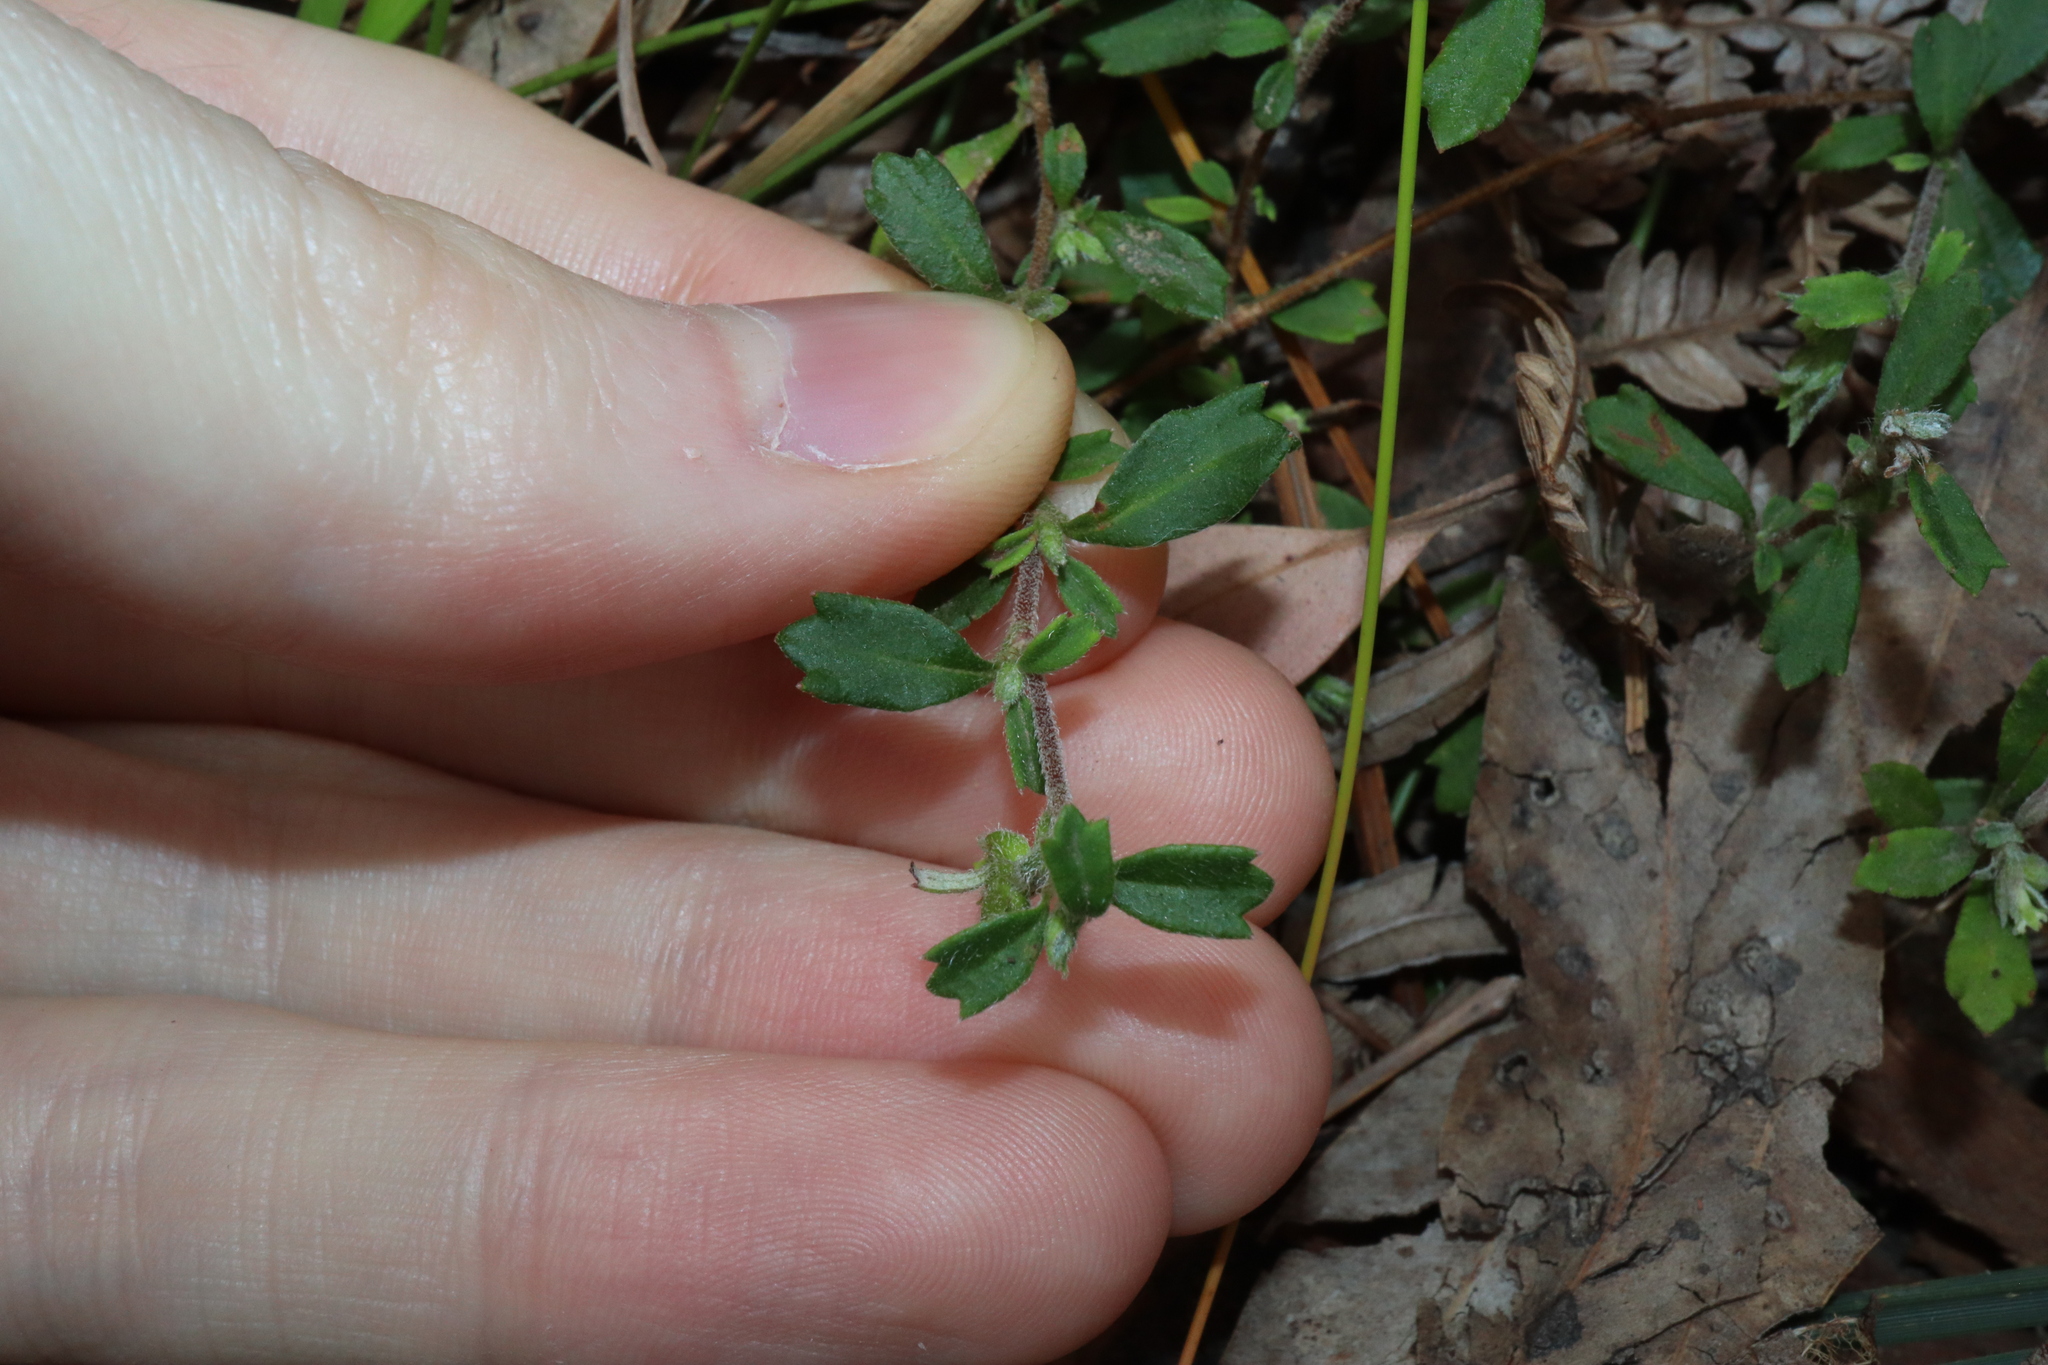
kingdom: Plantae
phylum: Tracheophyta
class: Magnoliopsida
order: Apiales
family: Apiaceae
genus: Xanthosia
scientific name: Xanthosia tridentata
